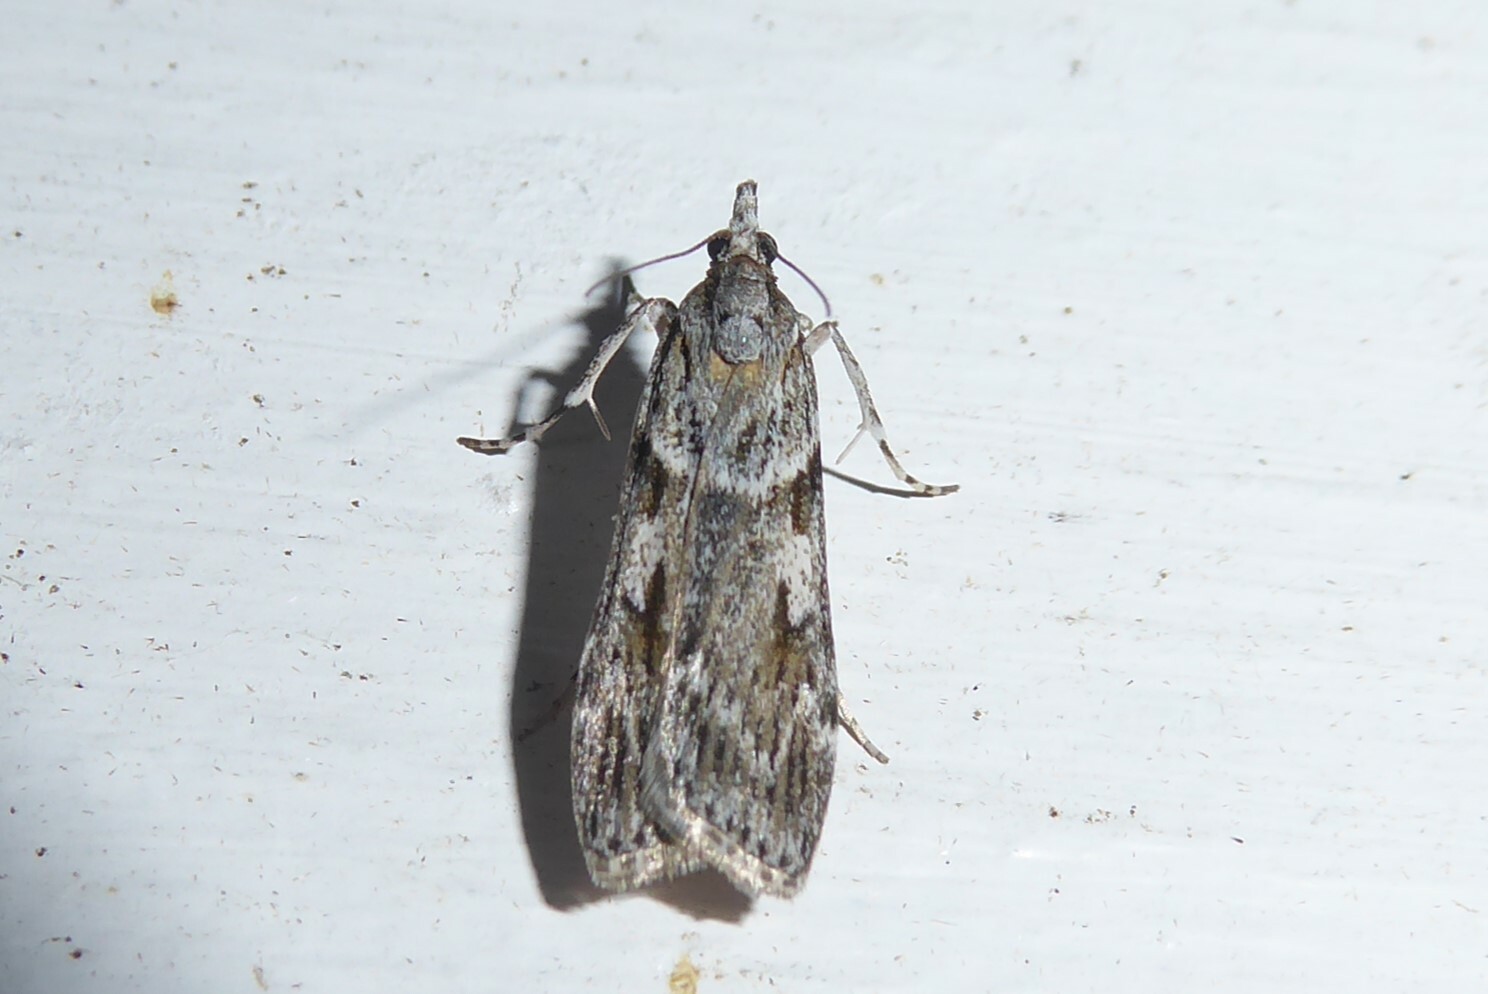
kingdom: Animalia
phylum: Arthropoda
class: Insecta
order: Lepidoptera
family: Crambidae
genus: Scoparia
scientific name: Scoparia halopis
